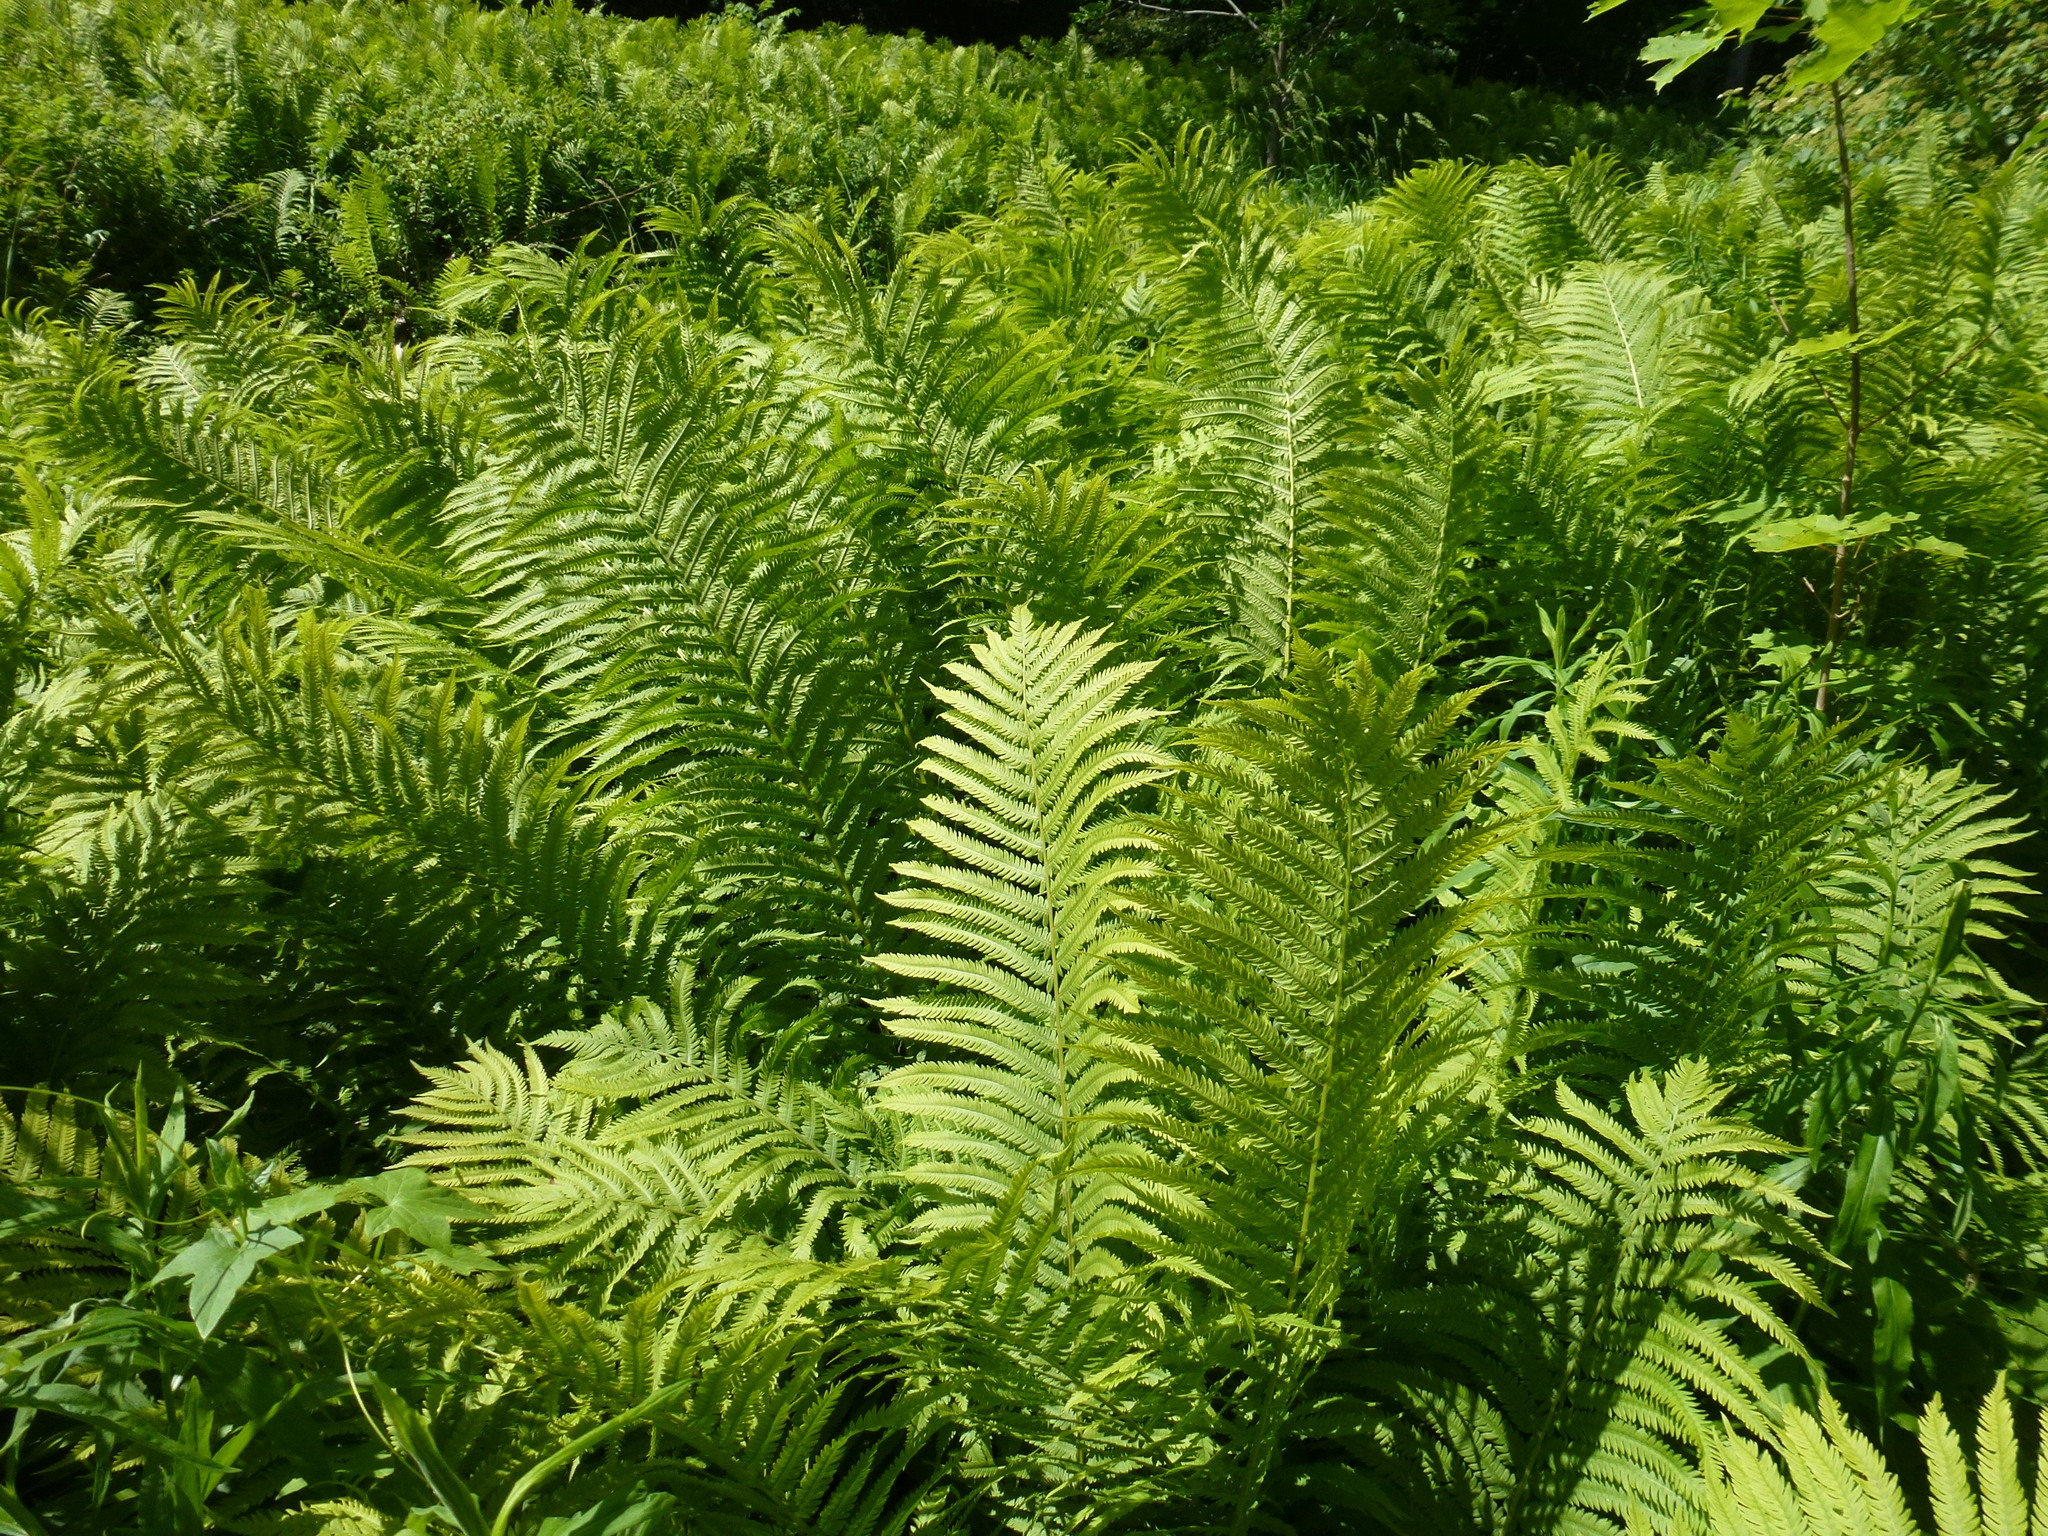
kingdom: Plantae
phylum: Tracheophyta
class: Polypodiopsida
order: Polypodiales
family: Onocleaceae
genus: Matteuccia
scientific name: Matteuccia struthiopteris
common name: Ostrich fern
